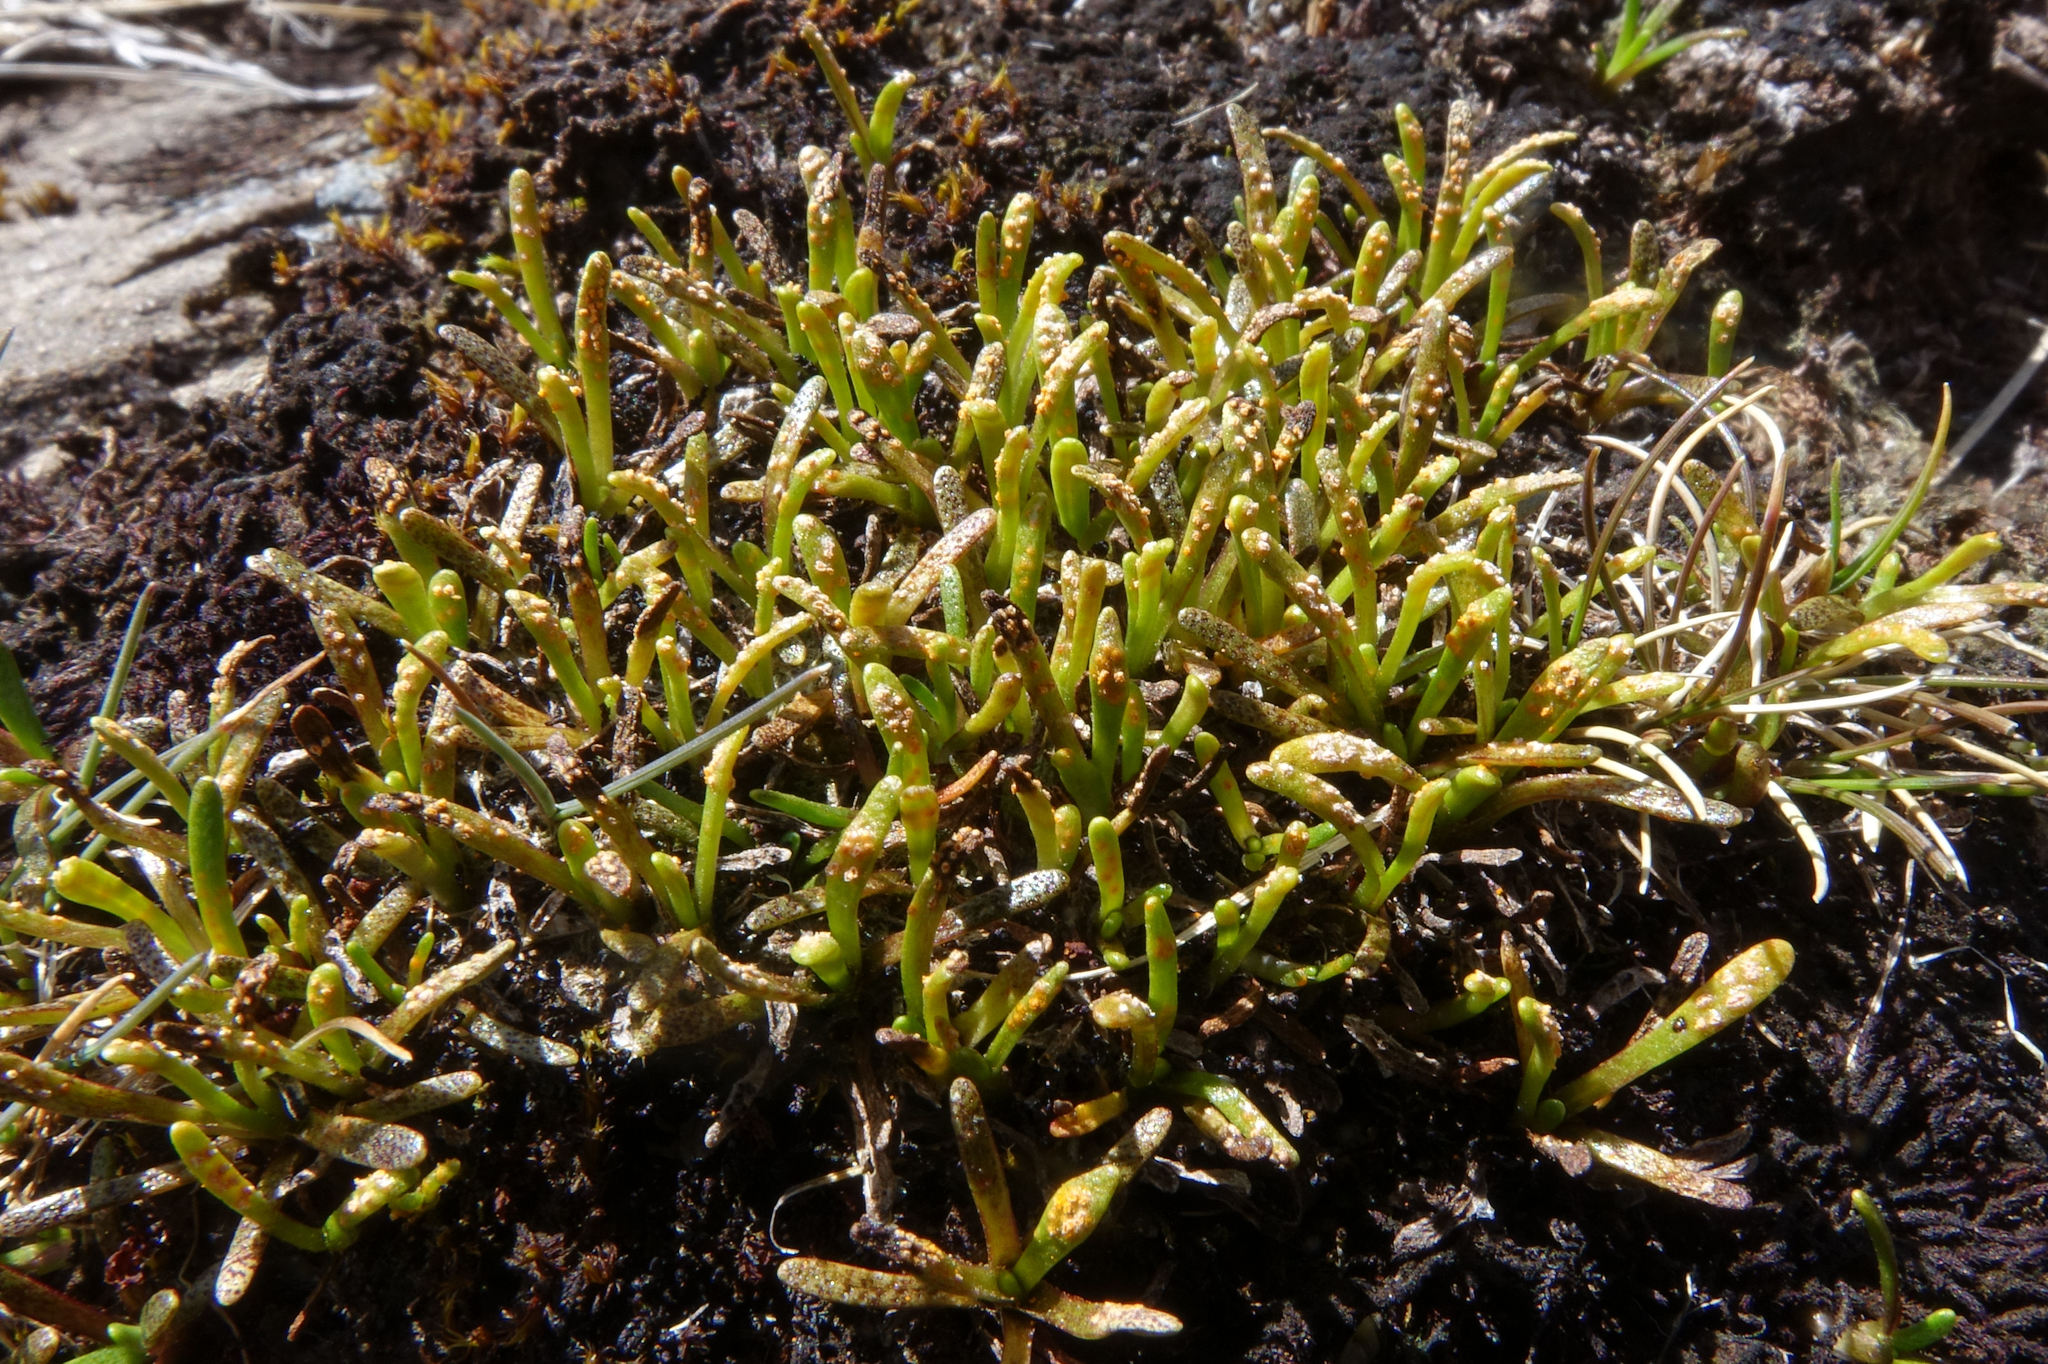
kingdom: Fungi
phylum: Basidiomycota
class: Pucciniomycetes
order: Pucciniales
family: Pucciniaceae
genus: Aecidium
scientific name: Aecidium monocystis
